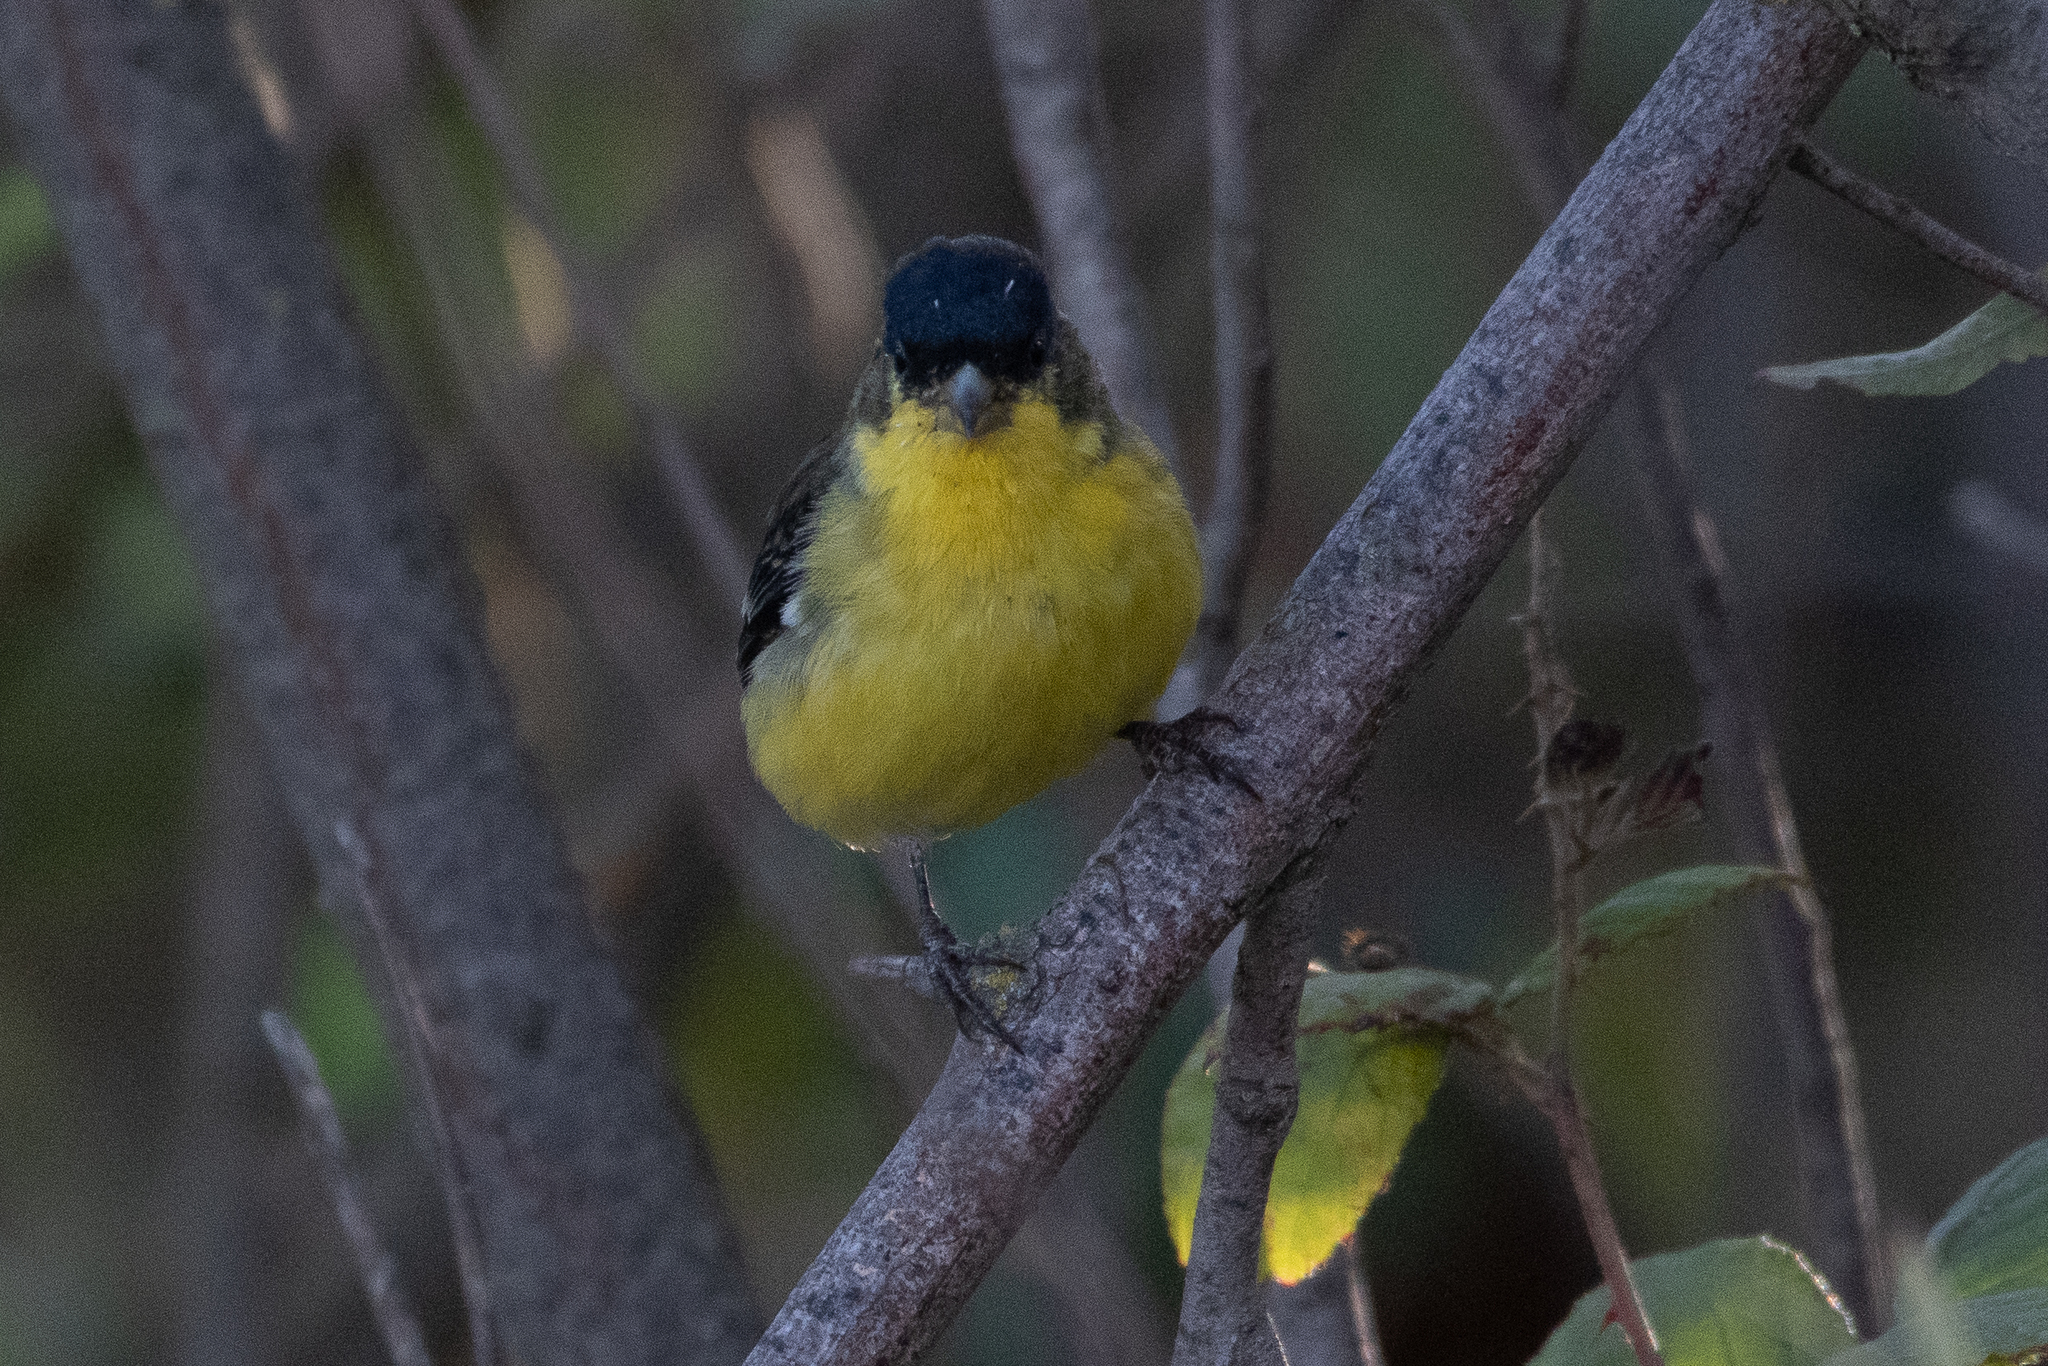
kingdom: Animalia
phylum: Chordata
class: Aves
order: Passeriformes
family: Fringillidae
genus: Spinus
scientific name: Spinus psaltria
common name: Lesser goldfinch
